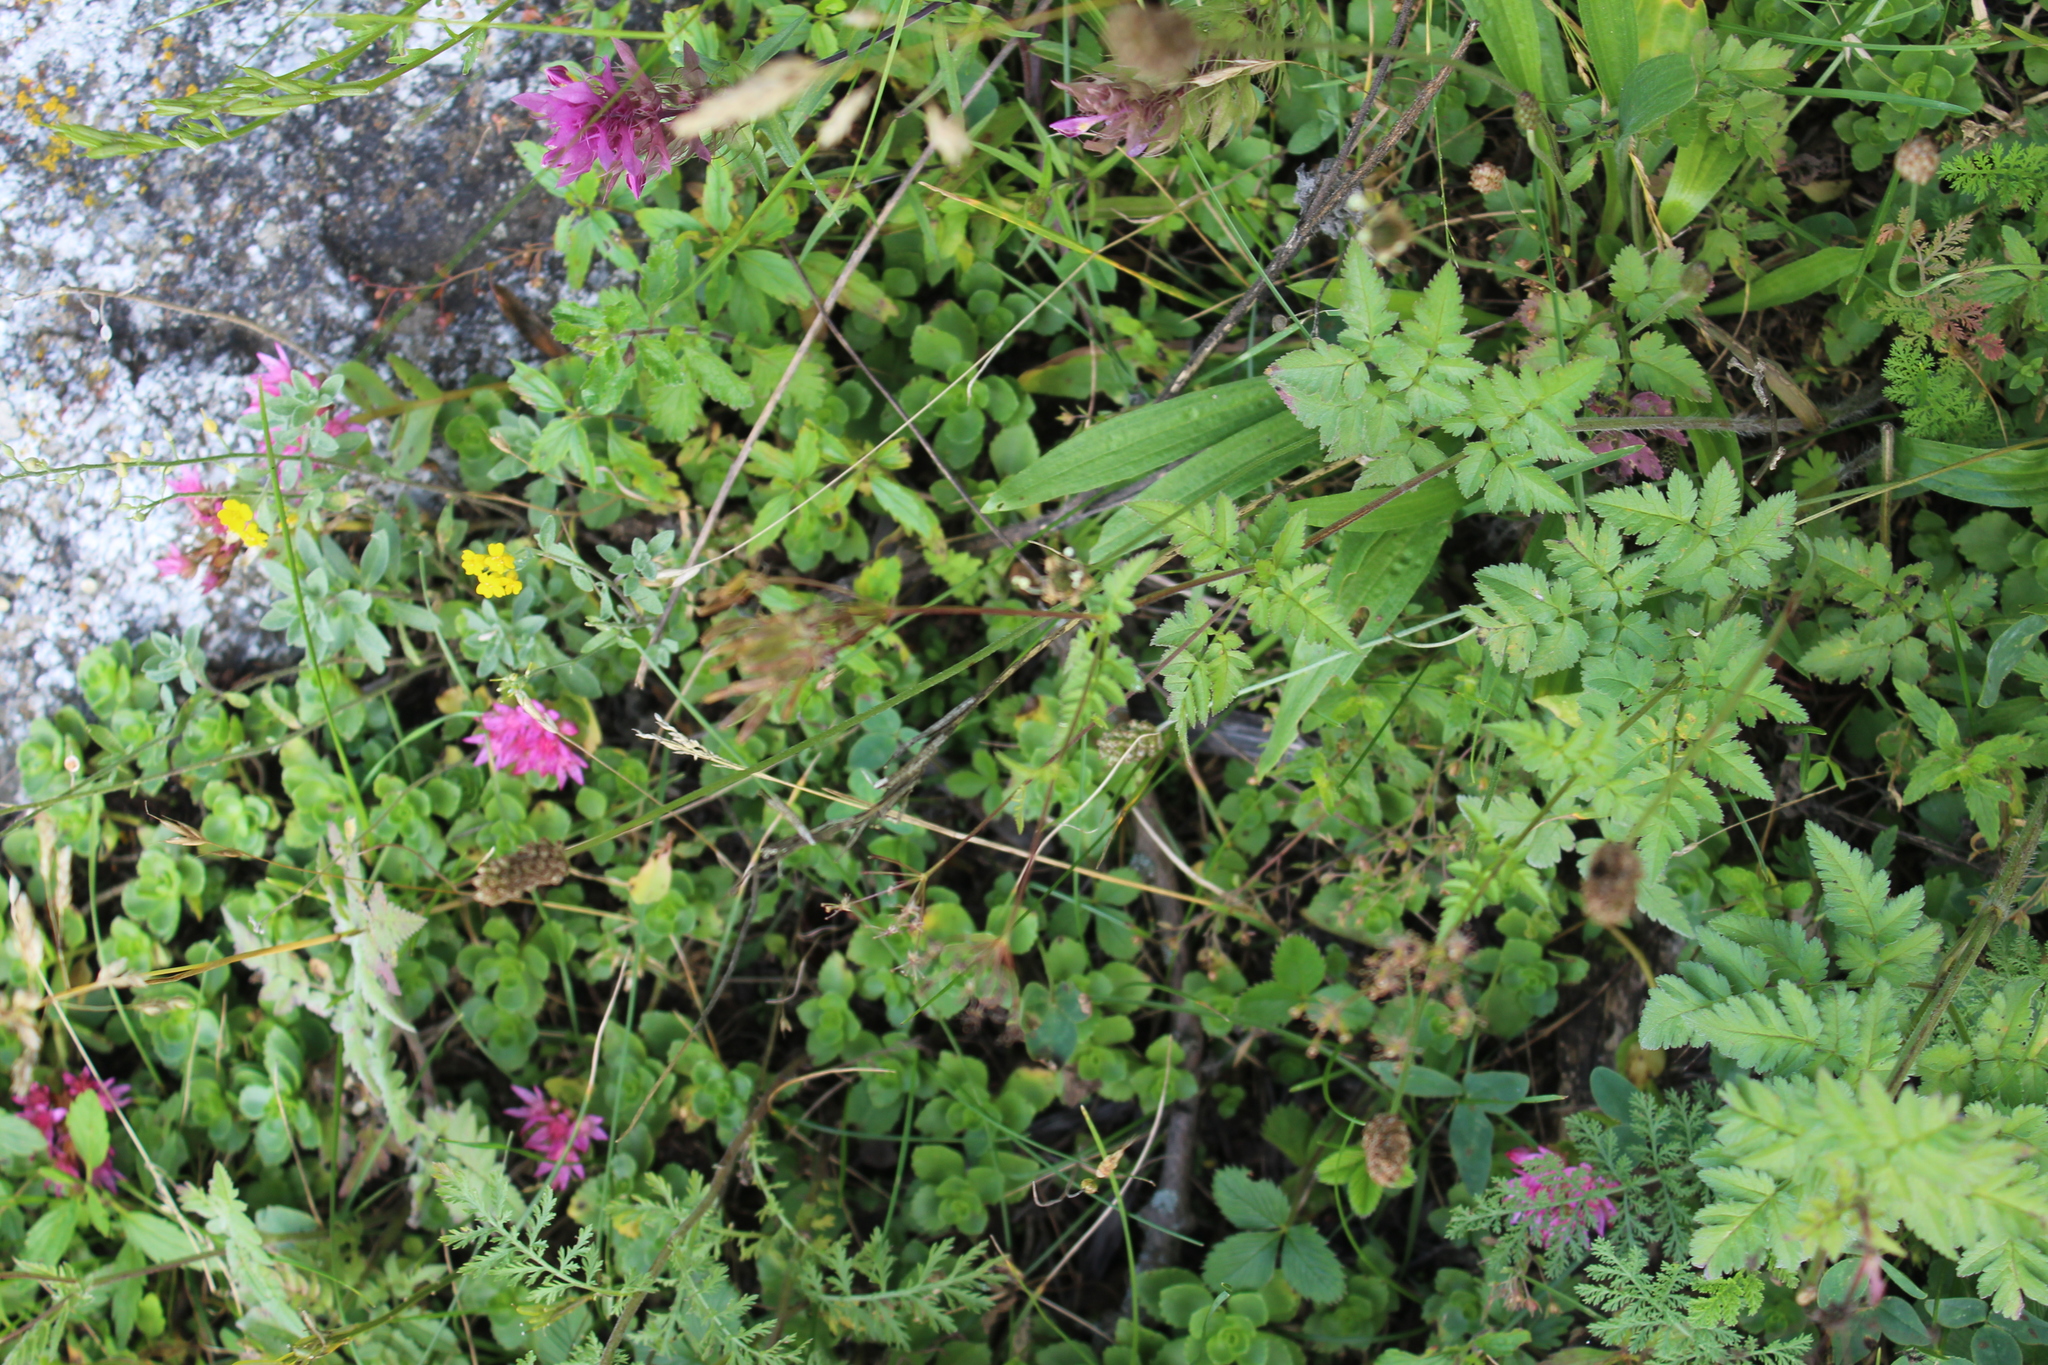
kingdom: Plantae
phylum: Tracheophyta
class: Magnoliopsida
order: Apiales
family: Apiaceae
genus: Chaerophyllum
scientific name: Chaerophyllum aureum
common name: Golden chervil
